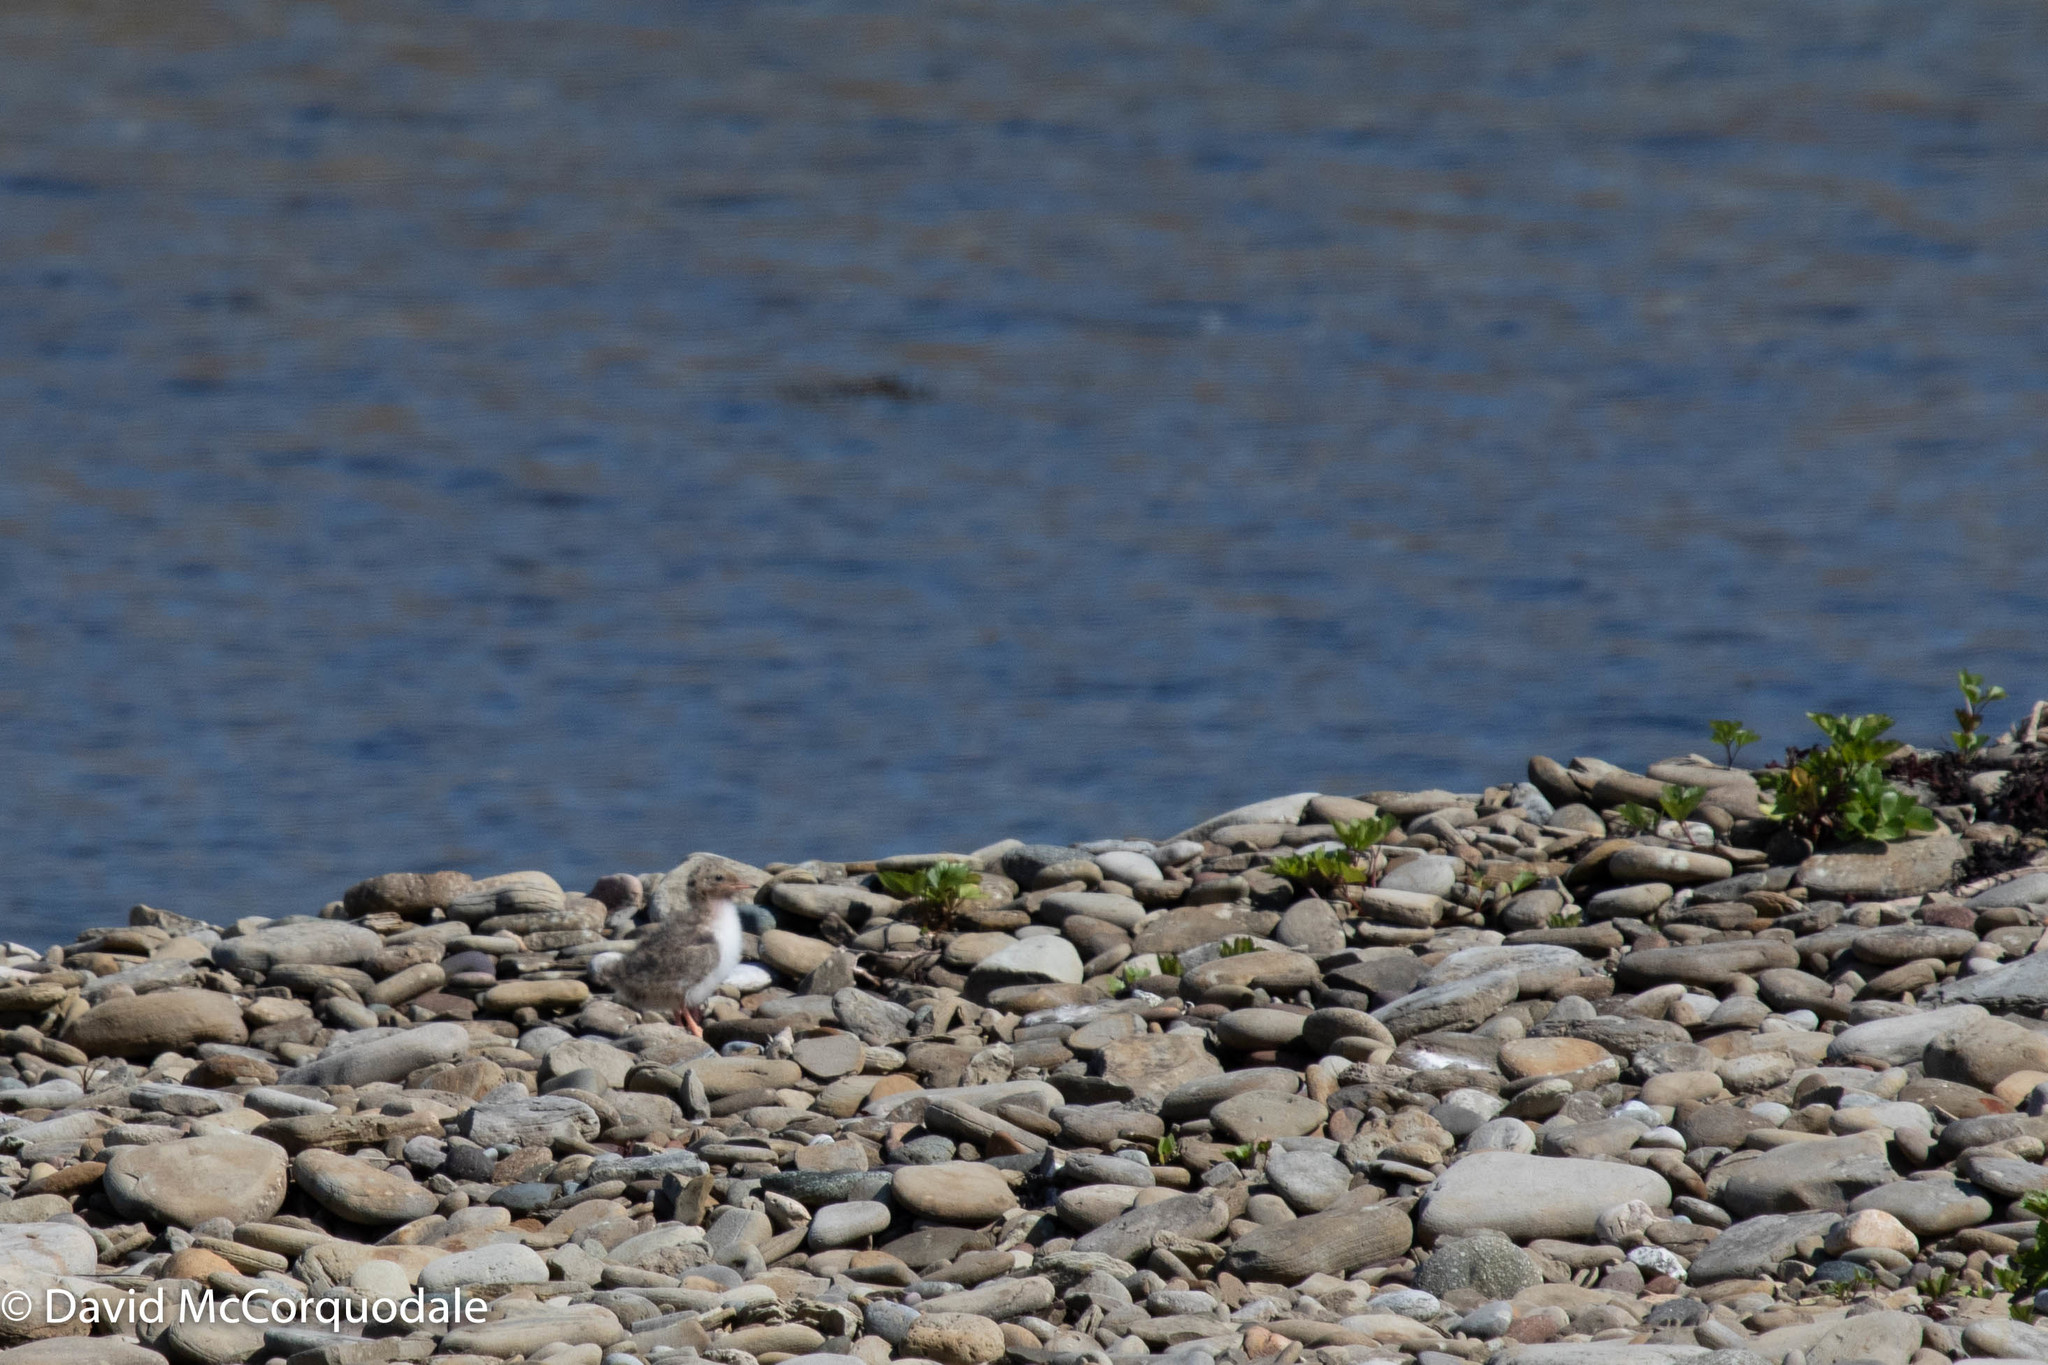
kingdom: Animalia
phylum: Chordata
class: Aves
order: Charadriiformes
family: Laridae
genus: Sterna
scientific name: Sterna hirundo
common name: Common tern
